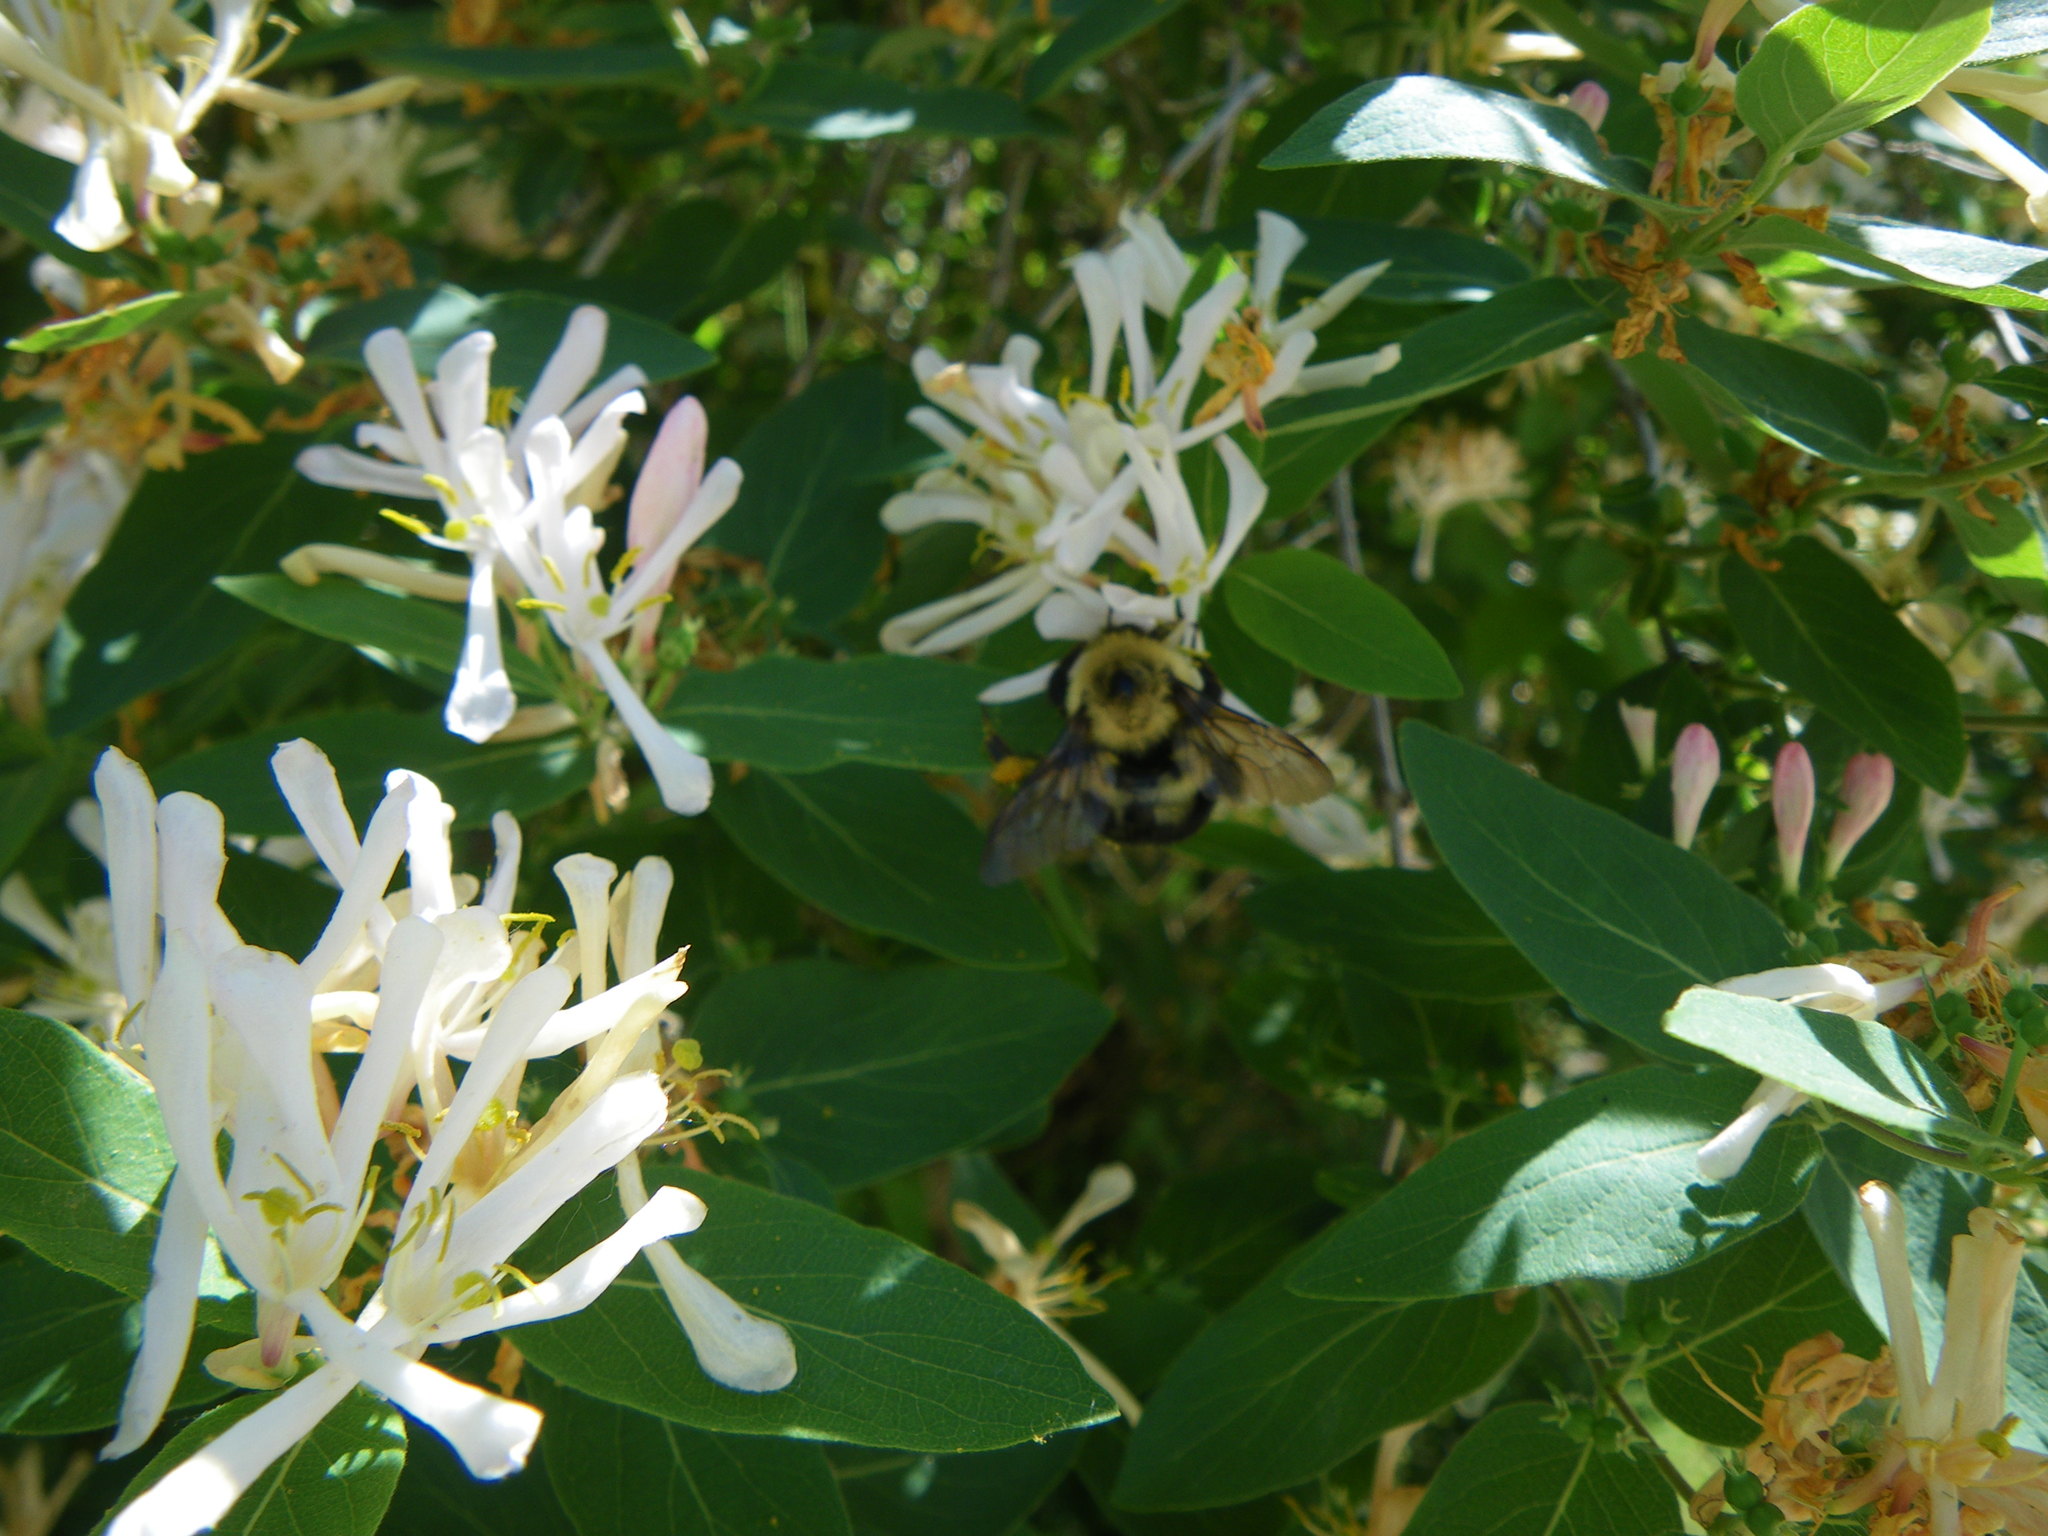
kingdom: Animalia
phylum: Arthropoda
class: Insecta
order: Hymenoptera
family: Apidae
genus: Bombus
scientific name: Bombus bimaculatus
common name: Two-spotted bumble bee
